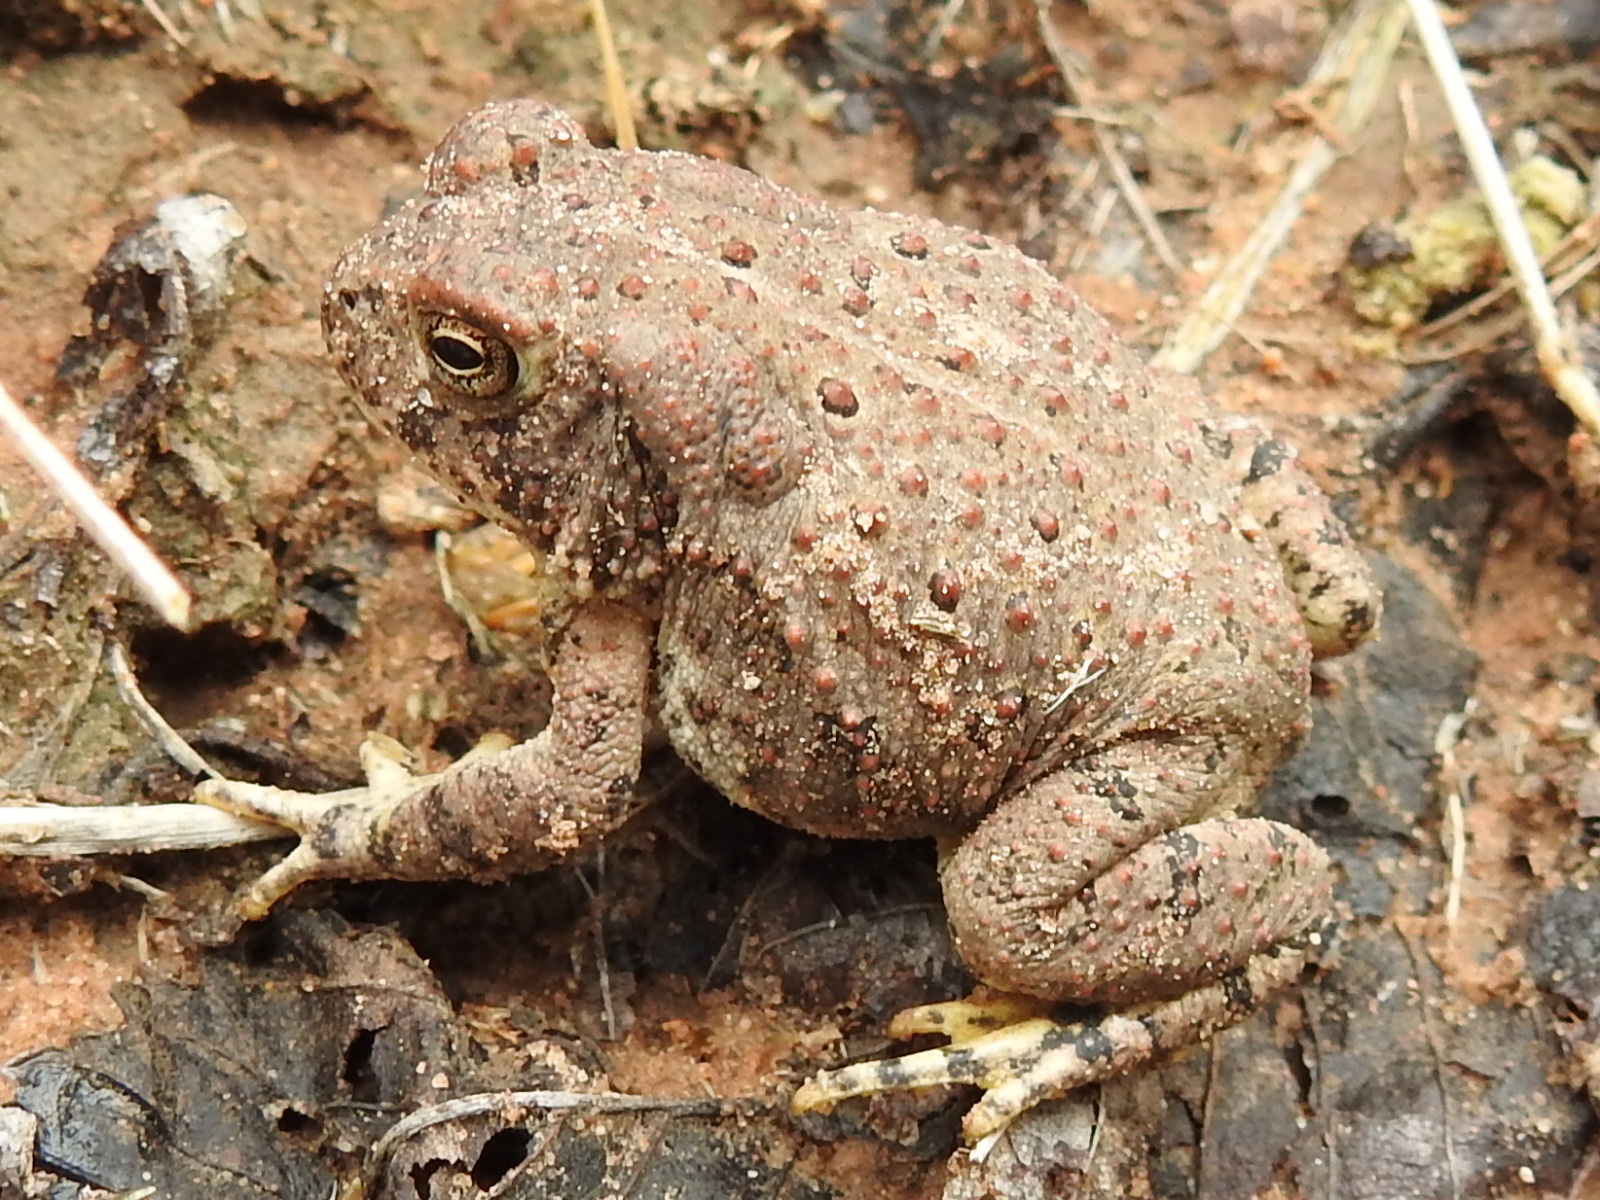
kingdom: Animalia
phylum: Chordata
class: Amphibia
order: Anura
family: Bufonidae
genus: Anaxyrus
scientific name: Anaxyrus woodhousii
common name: Woodhouse's toad
